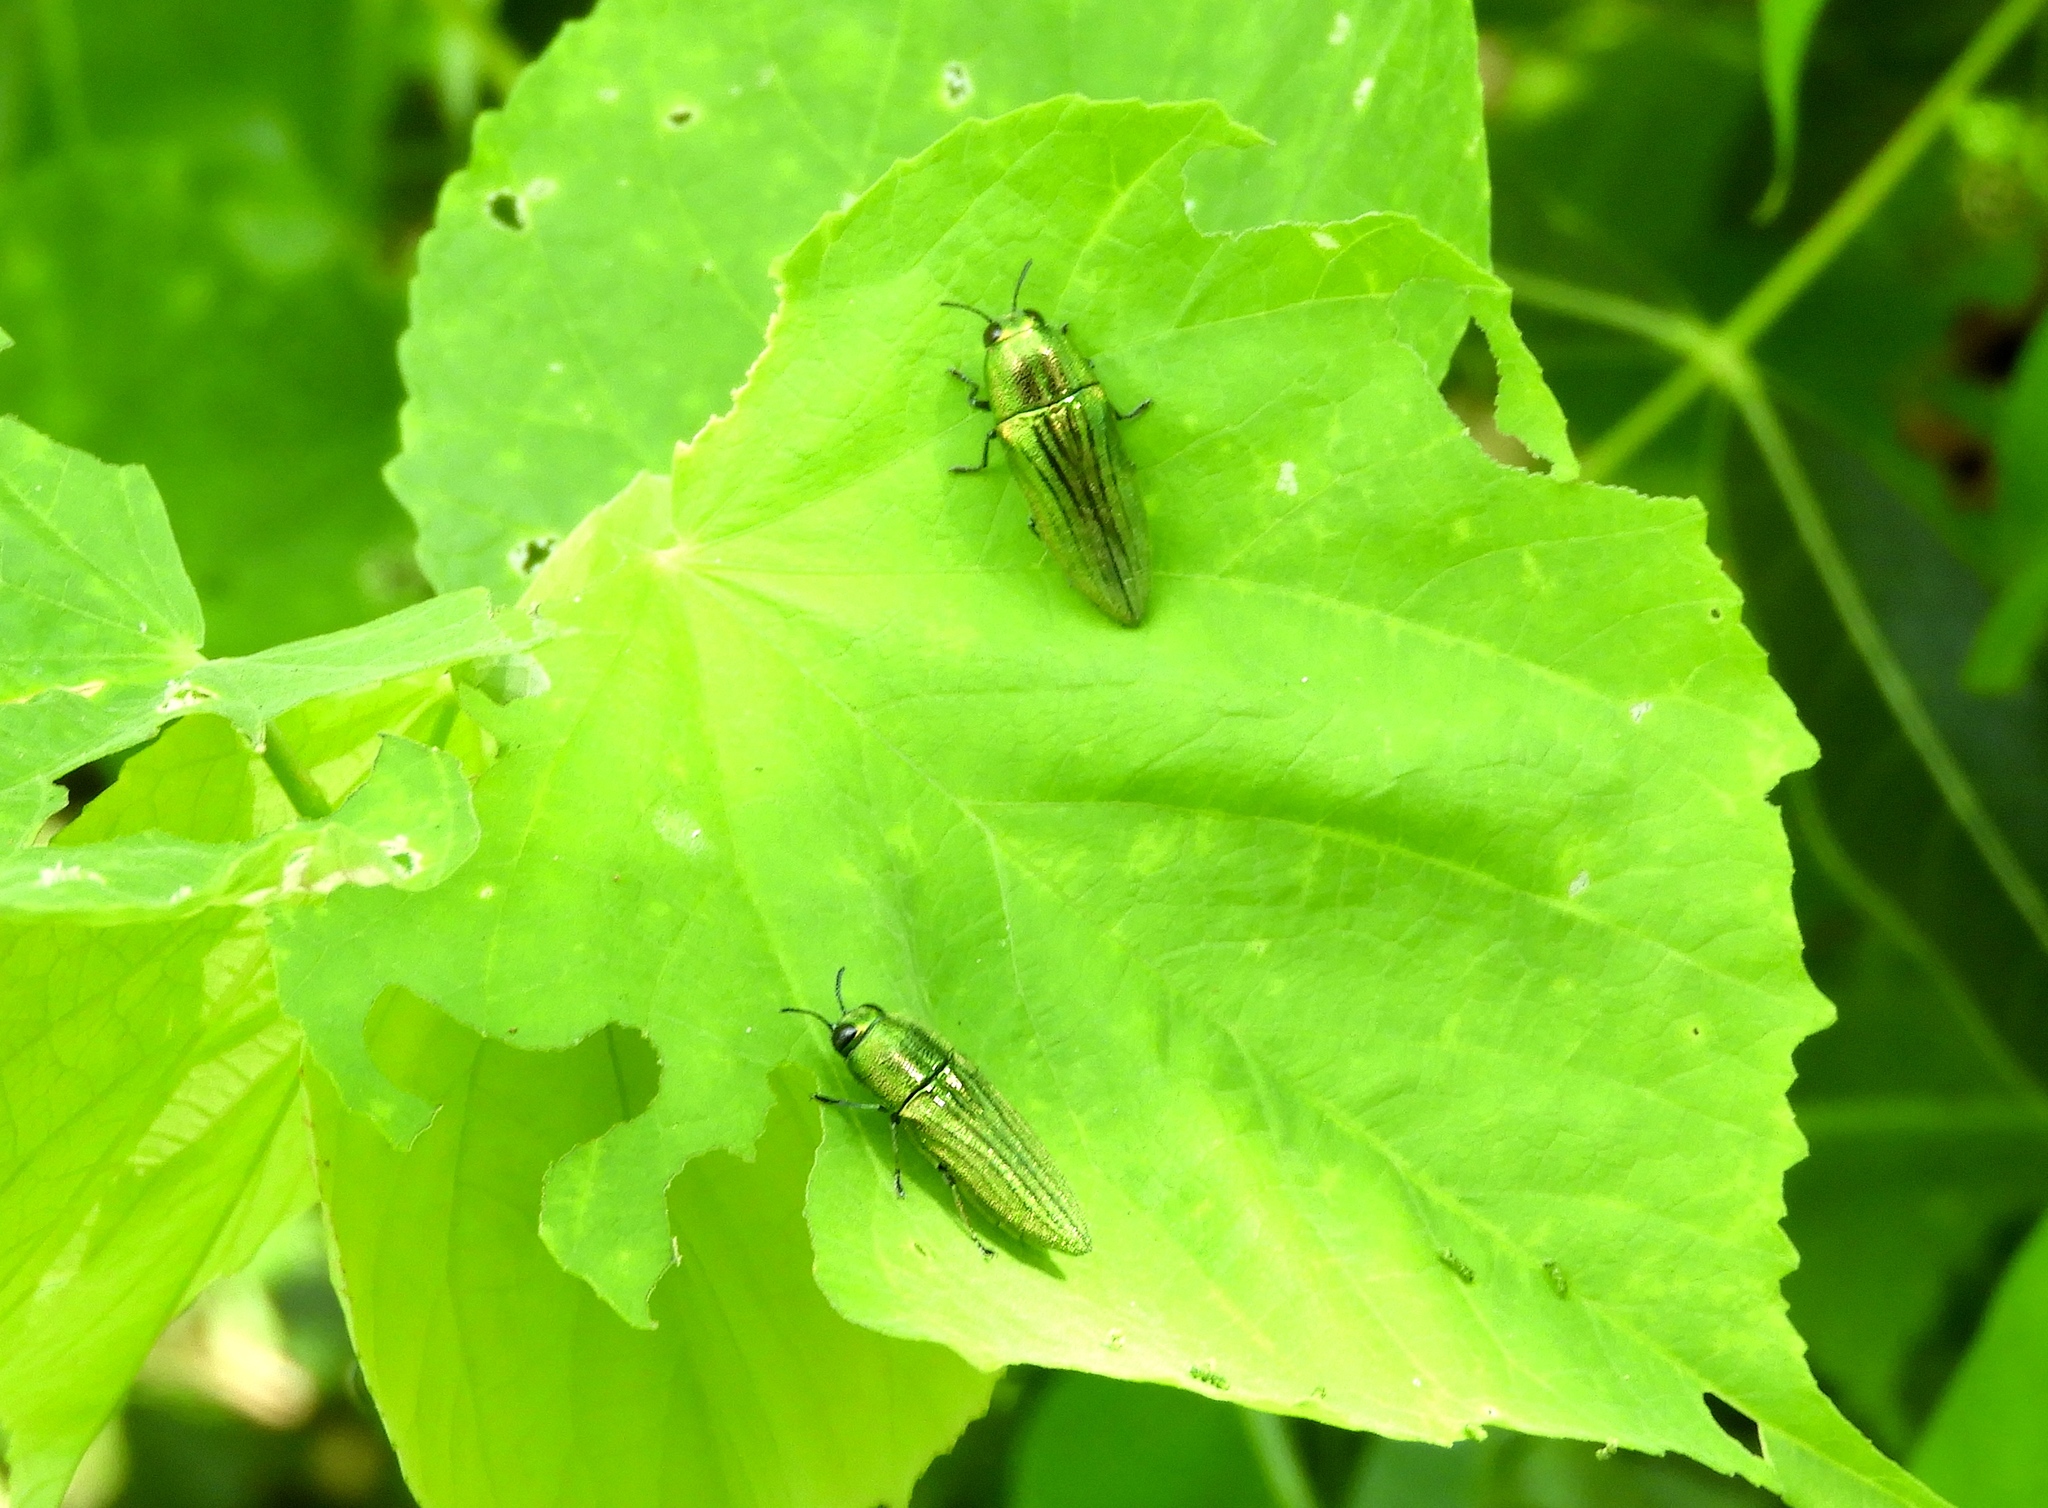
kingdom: Animalia
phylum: Arthropoda
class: Insecta
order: Coleoptera
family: Buprestidae
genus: Agaeocera
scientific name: Agaeocera scintillans
